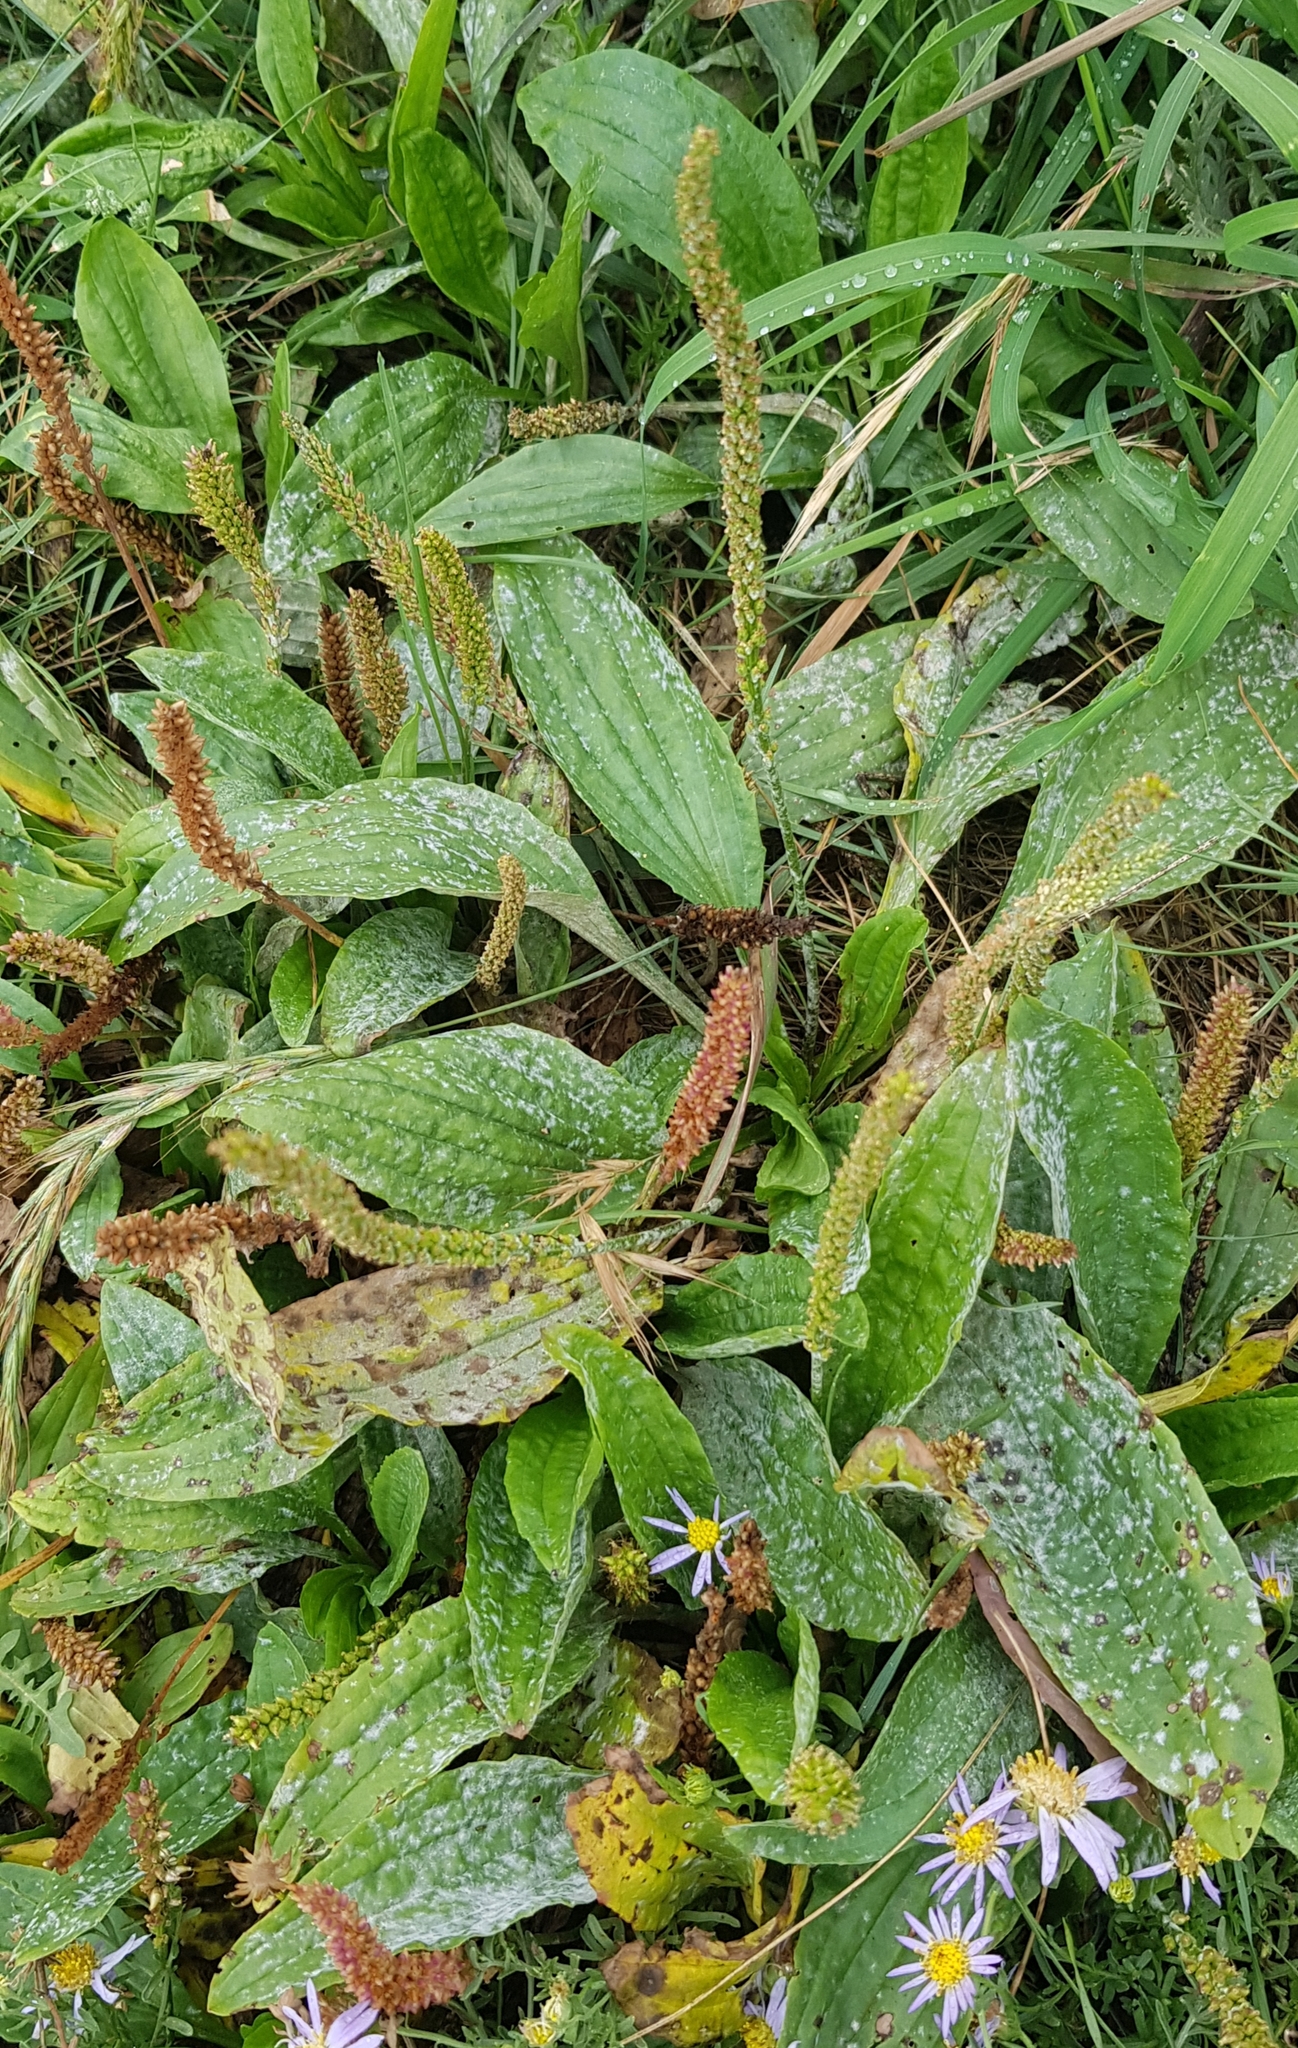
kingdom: Plantae
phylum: Tracheophyta
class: Magnoliopsida
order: Lamiales
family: Plantaginaceae
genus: Plantago
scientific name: Plantago depressa
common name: Depressed plantain
